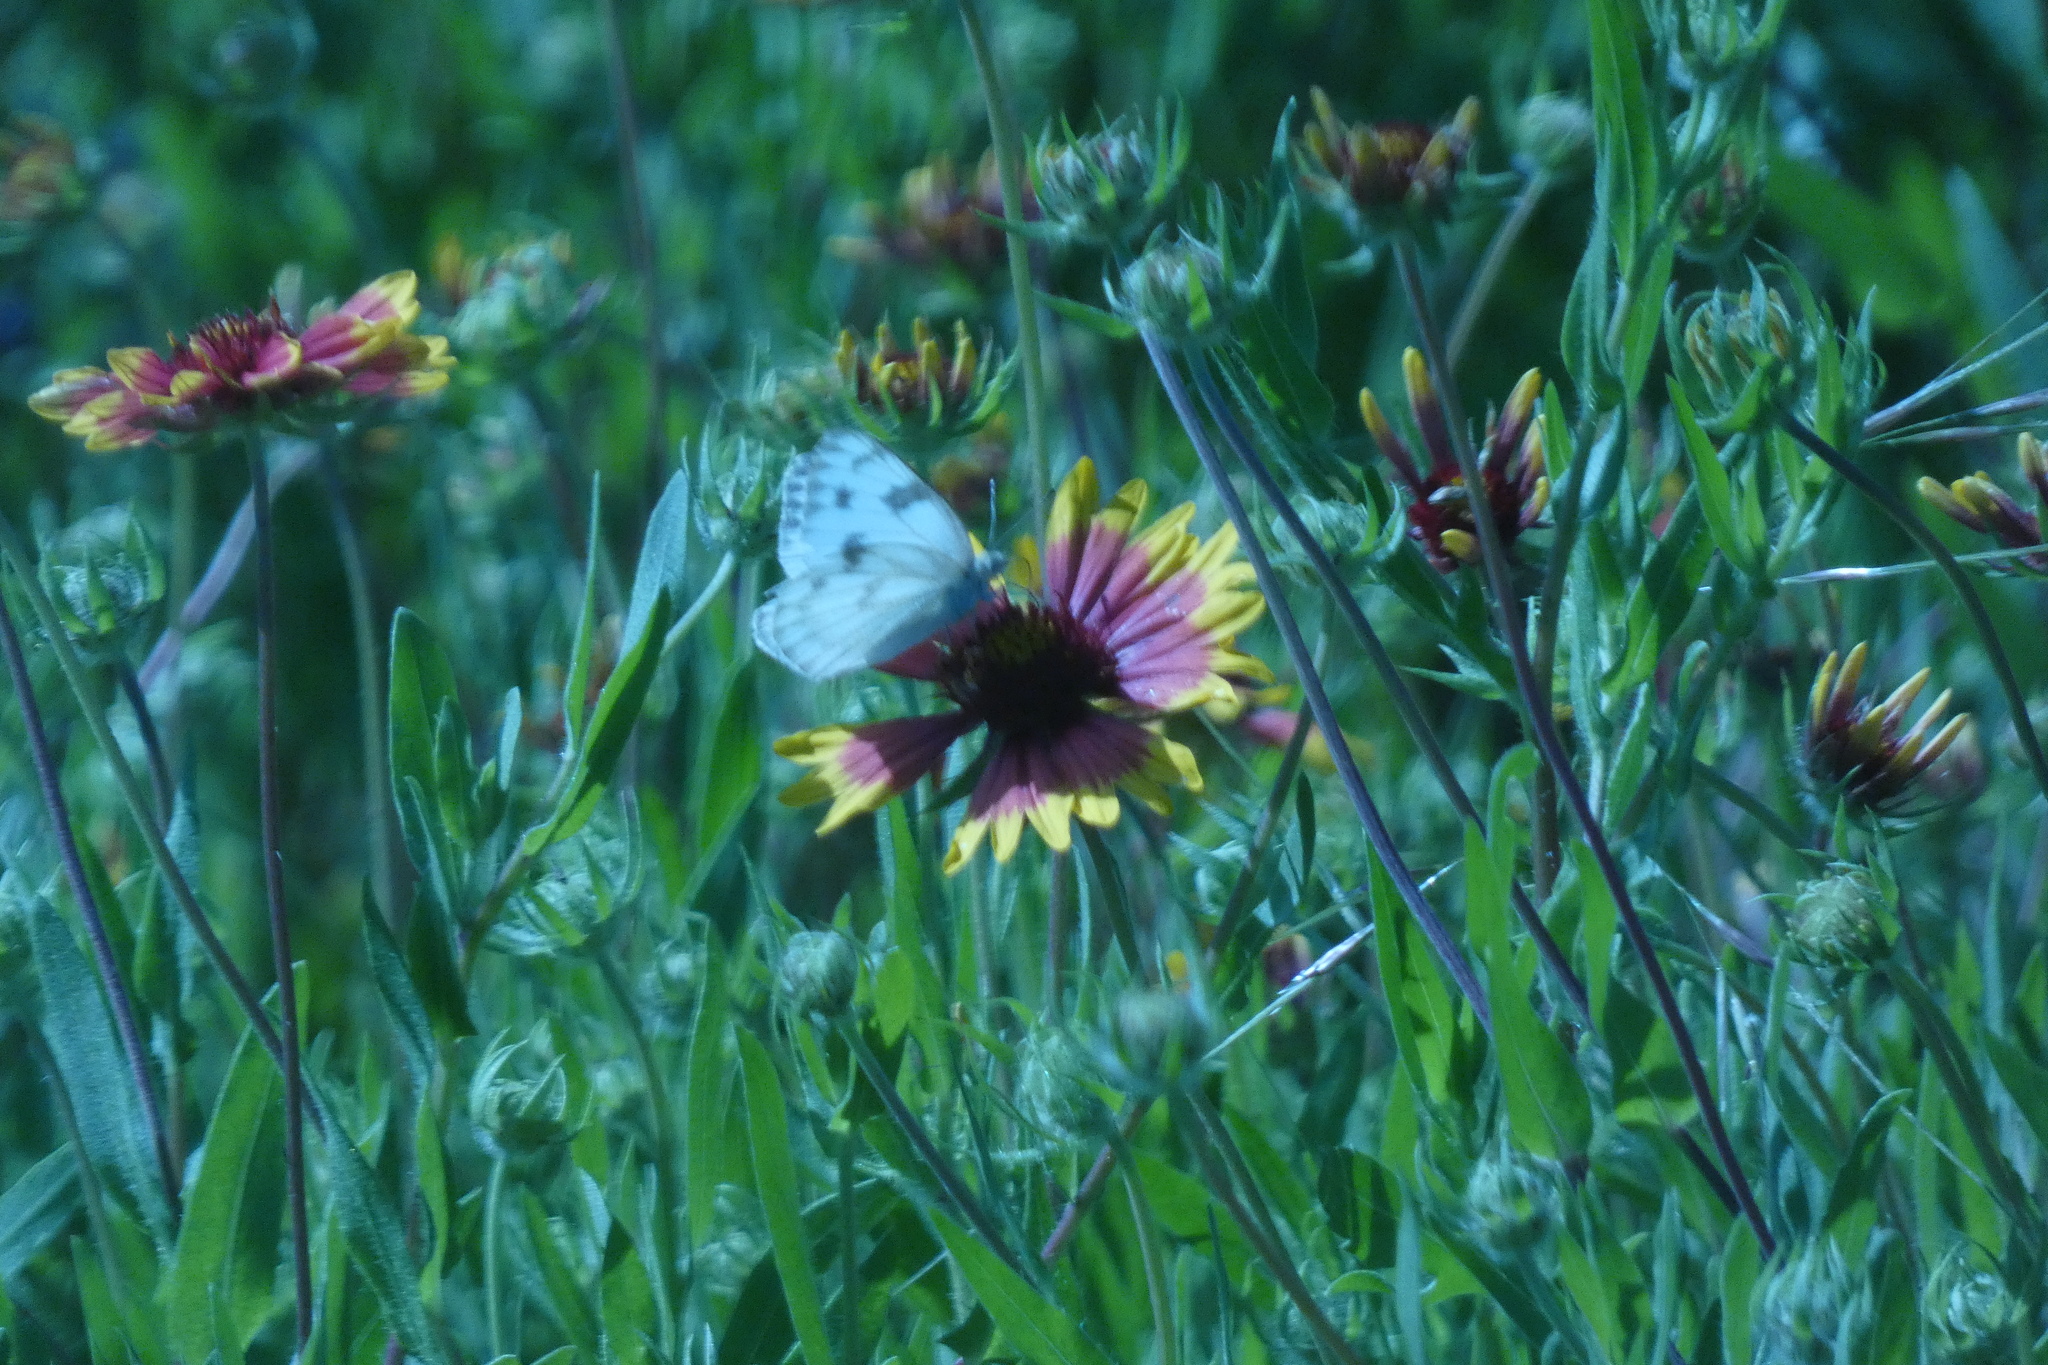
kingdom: Animalia
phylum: Arthropoda
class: Insecta
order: Lepidoptera
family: Pieridae
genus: Pontia
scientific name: Pontia protodice
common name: Checkered white
